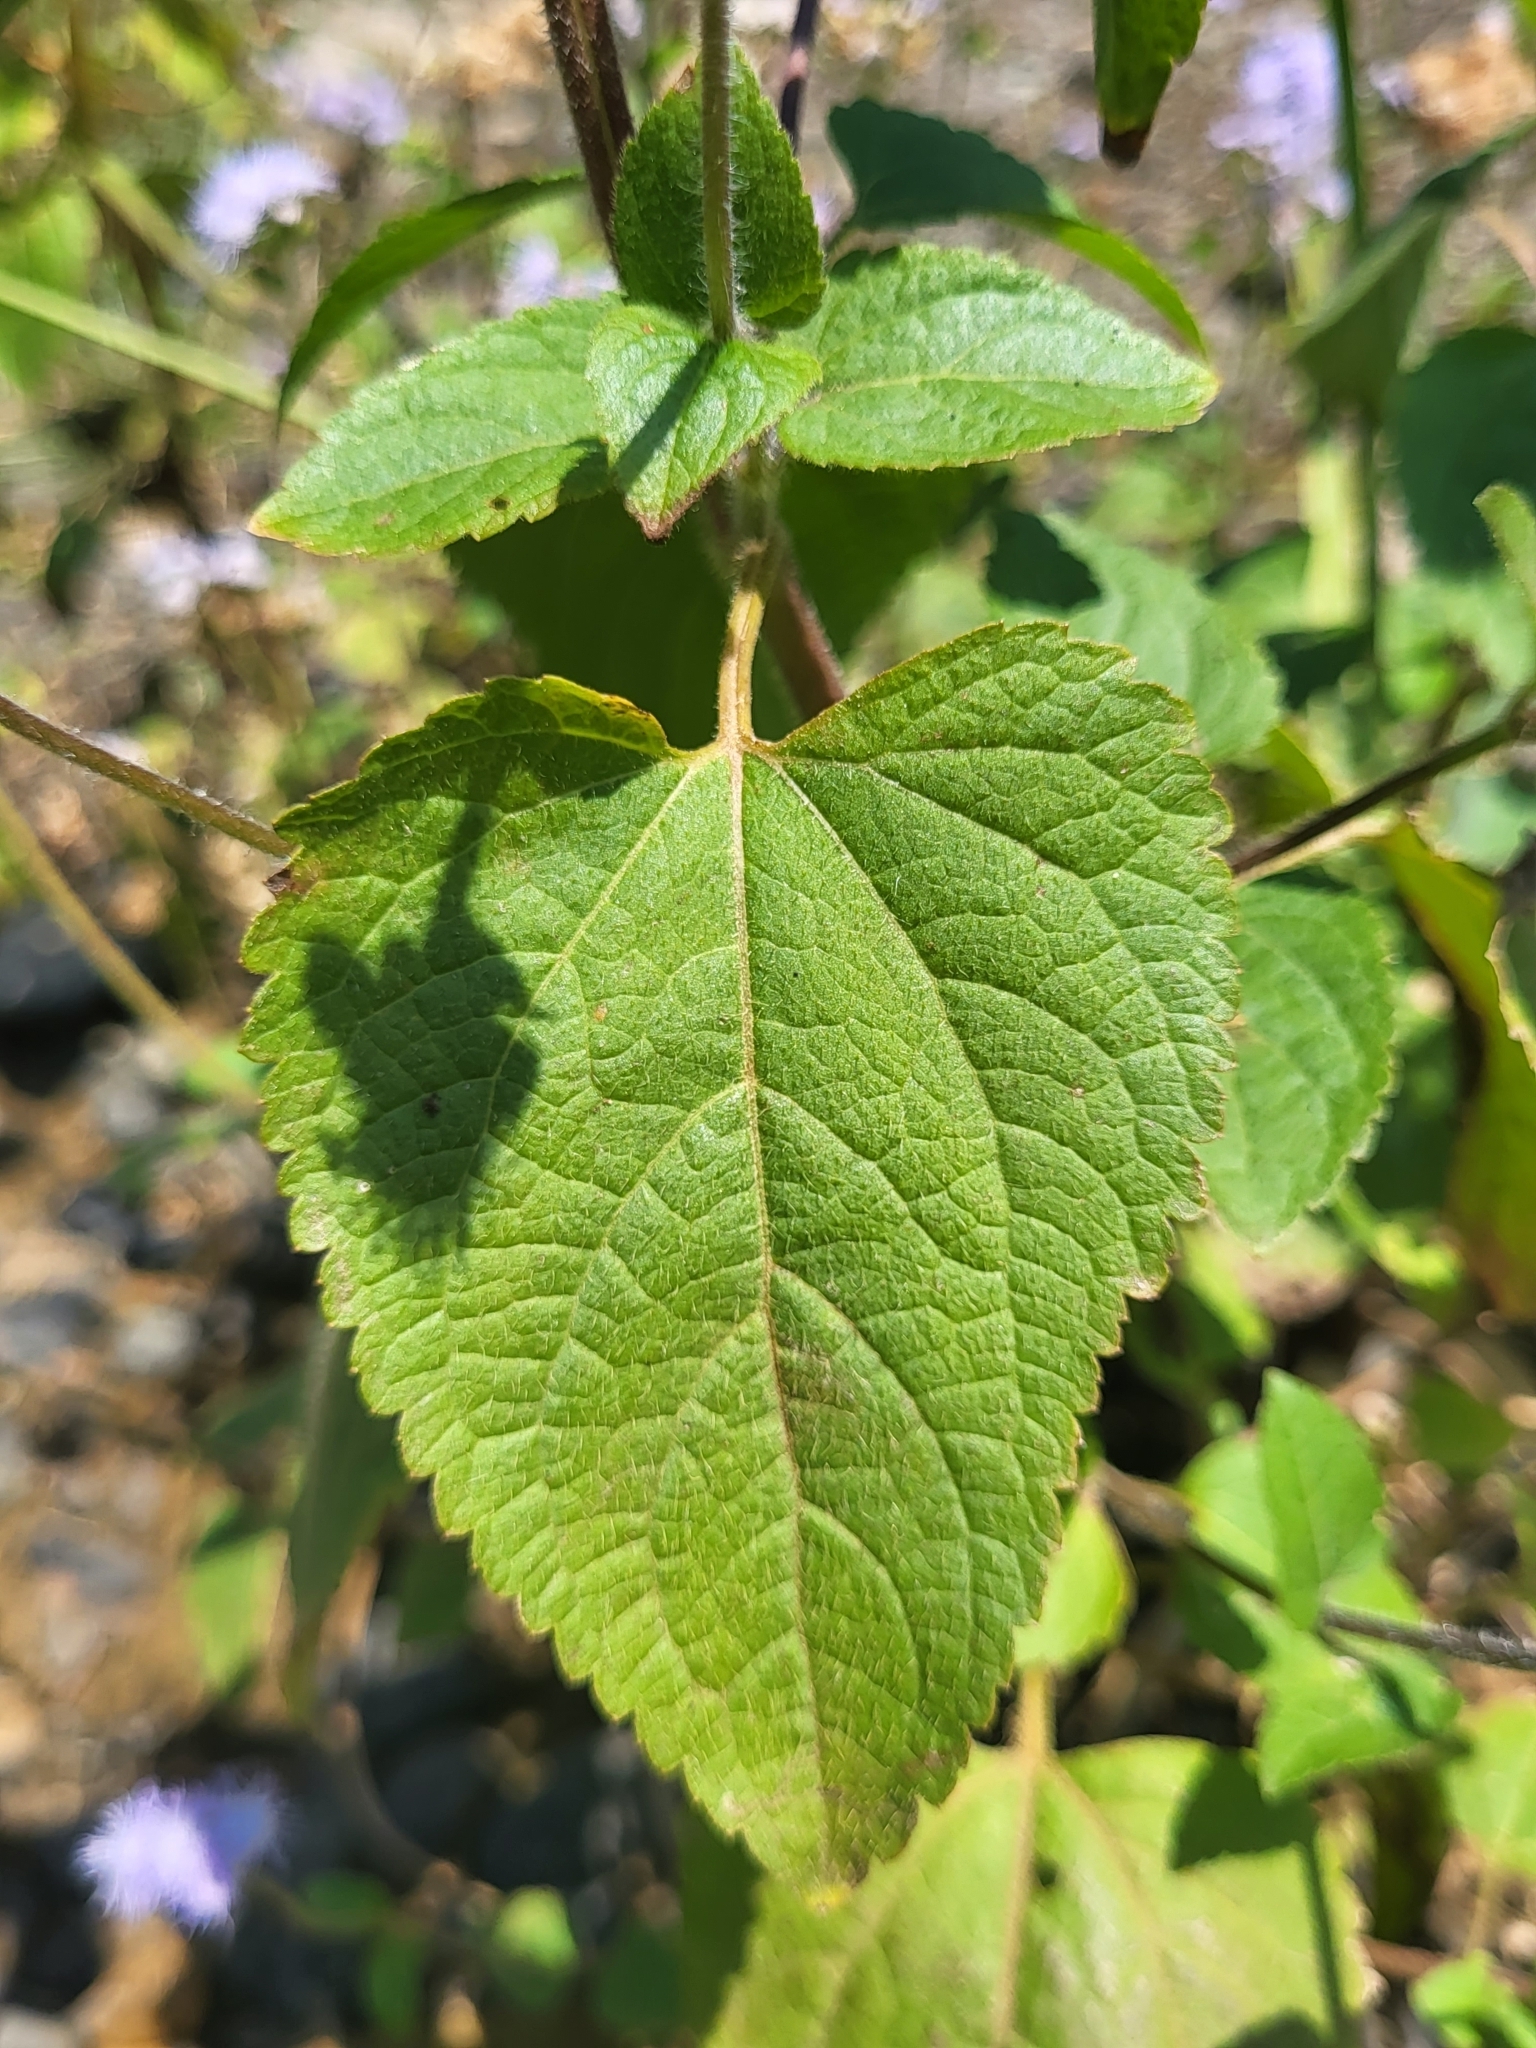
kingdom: Plantae
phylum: Tracheophyta
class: Magnoliopsida
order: Asterales
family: Asteraceae
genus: Ageratum
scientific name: Ageratum houstonianum
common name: Bluemink
